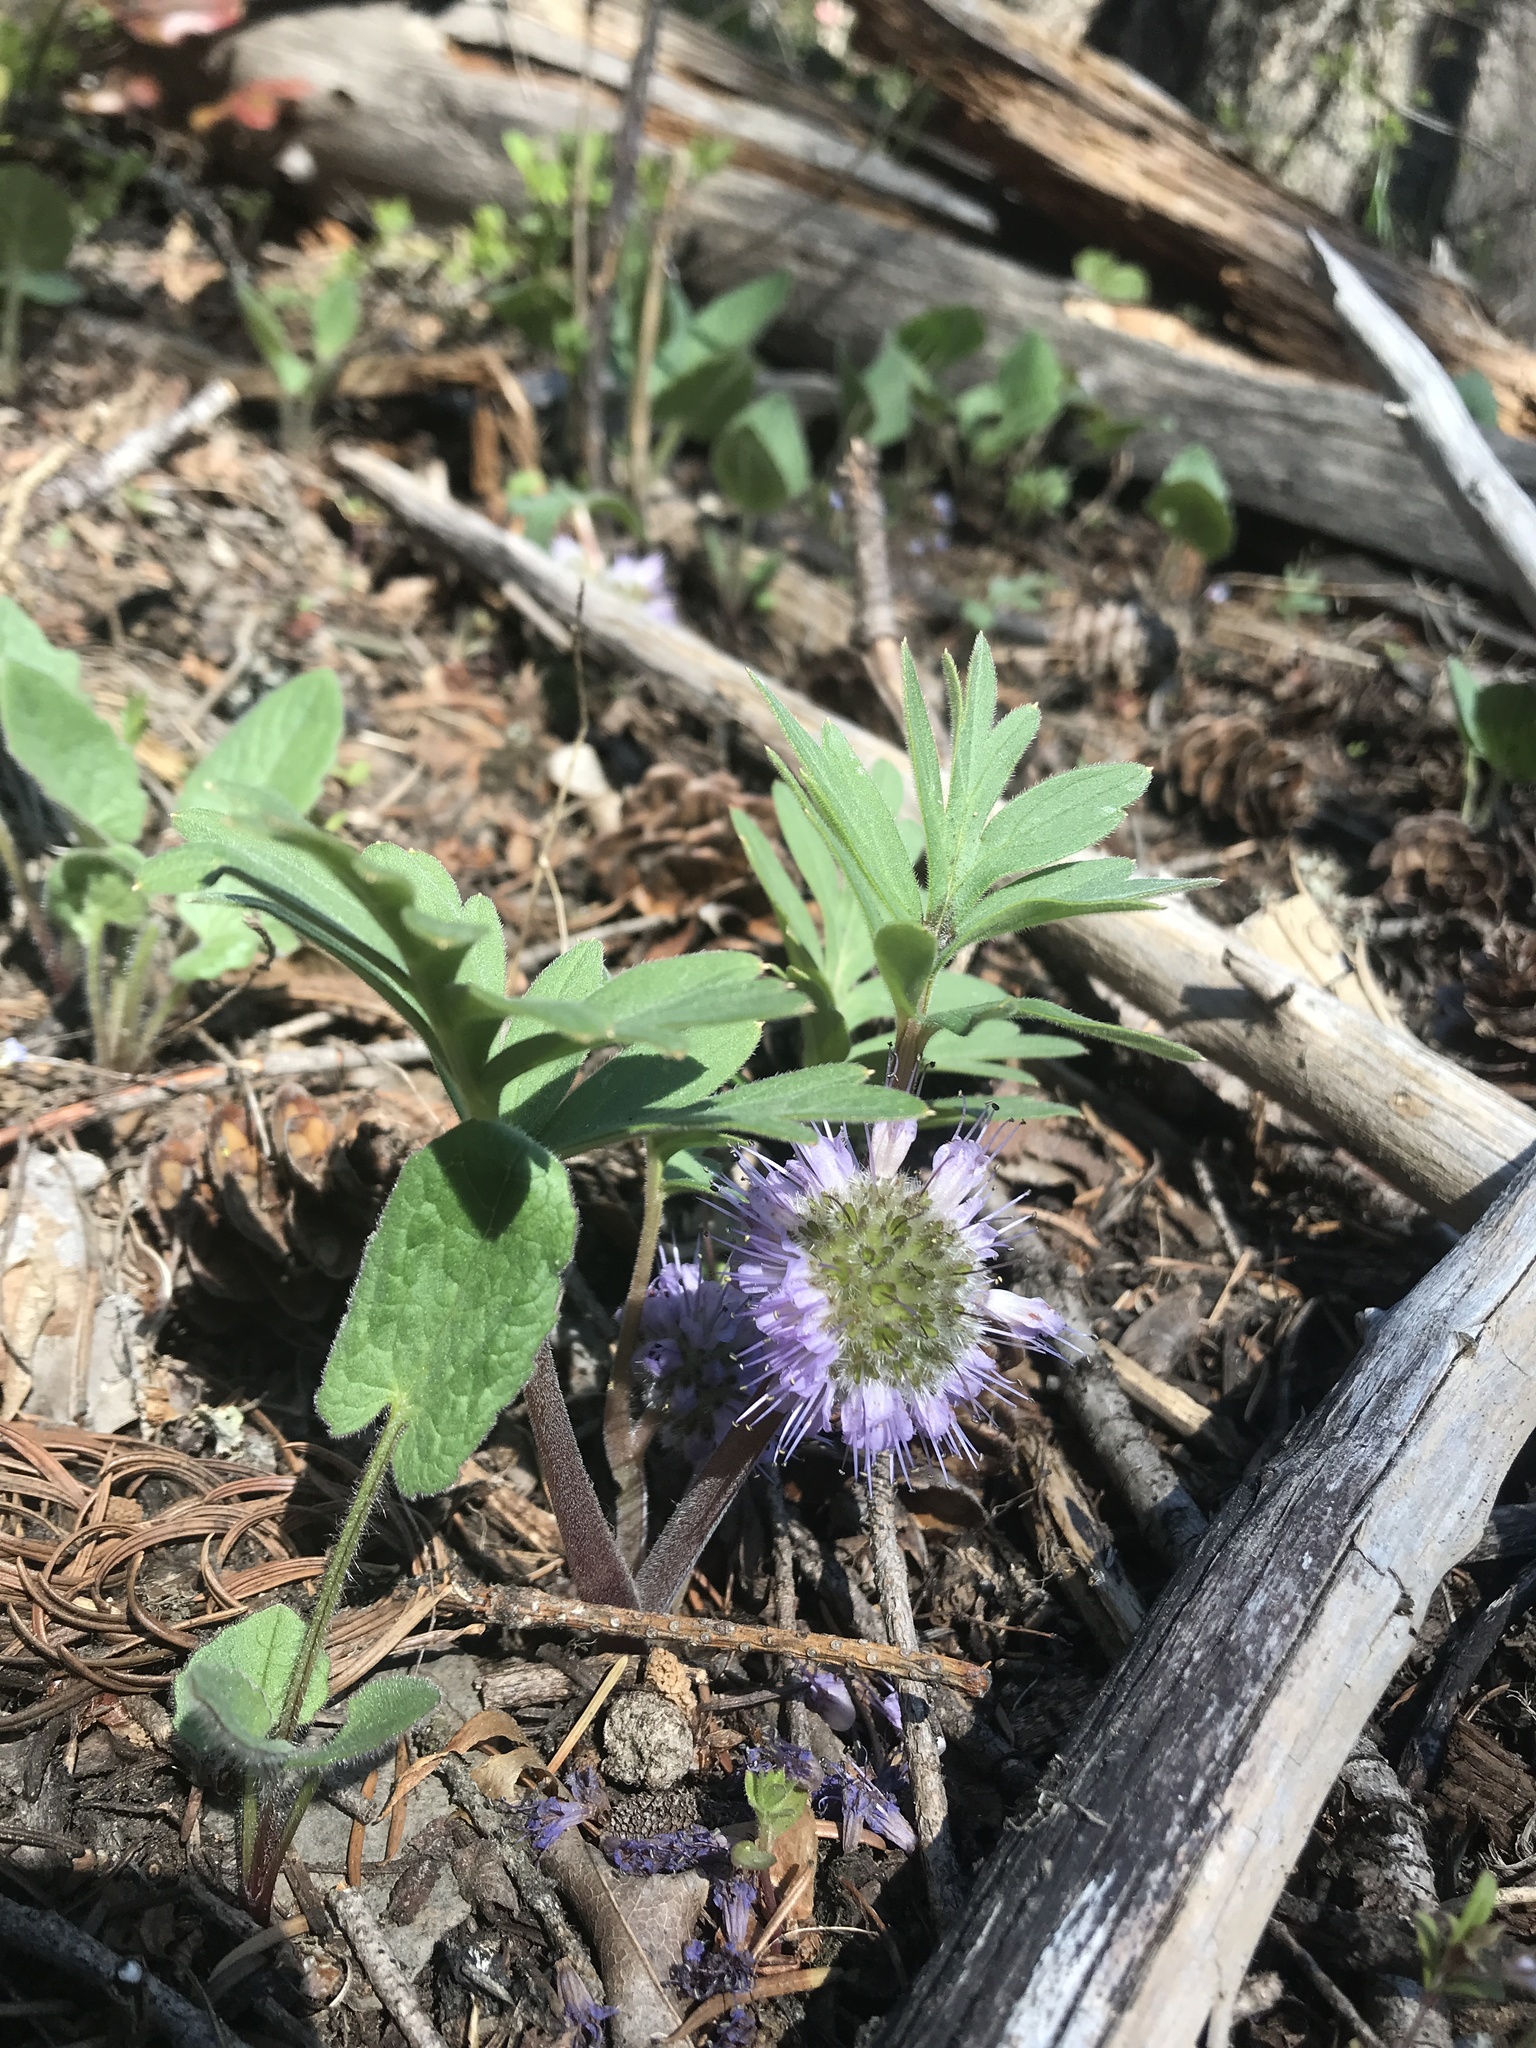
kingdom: Plantae
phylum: Tracheophyta
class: Magnoliopsida
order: Boraginales
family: Hydrophyllaceae
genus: Hydrophyllum
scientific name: Hydrophyllum capitatum
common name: Woollen-breeches
